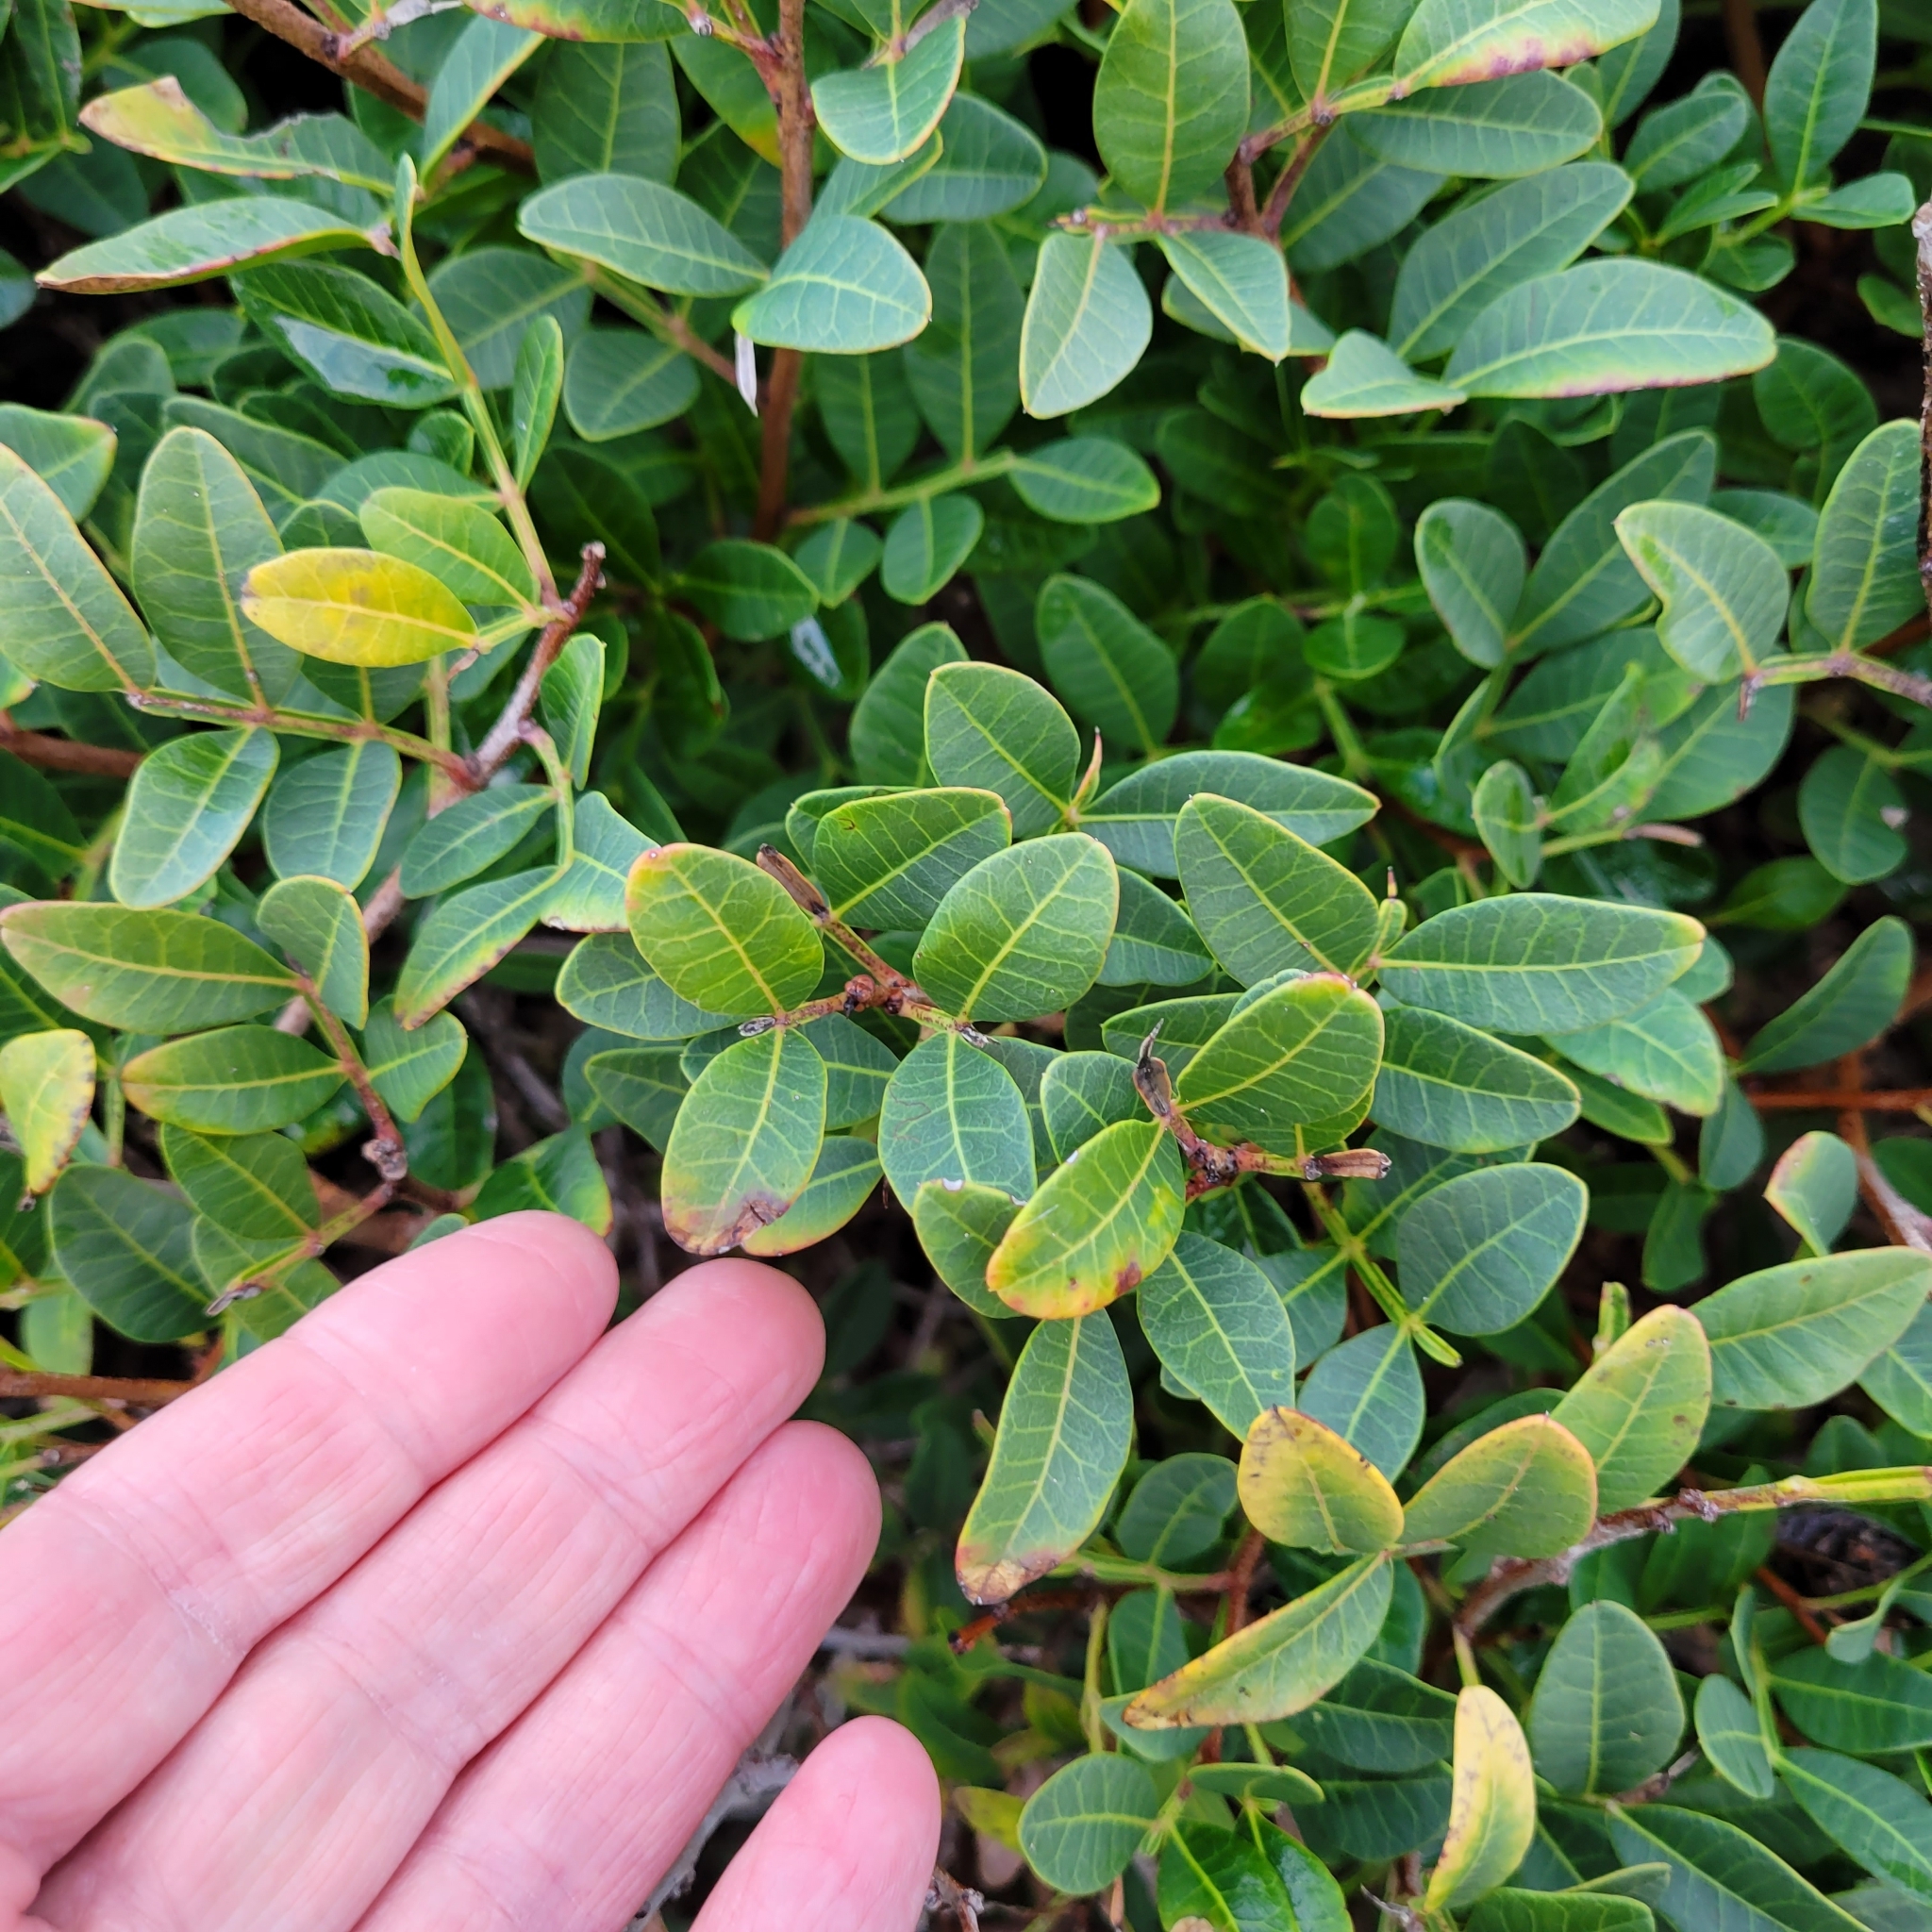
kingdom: Plantae
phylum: Tracheophyta
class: Magnoliopsida
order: Sapindales
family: Anacardiaceae
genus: Pistacia
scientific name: Pistacia lentiscus
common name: Lentisk
